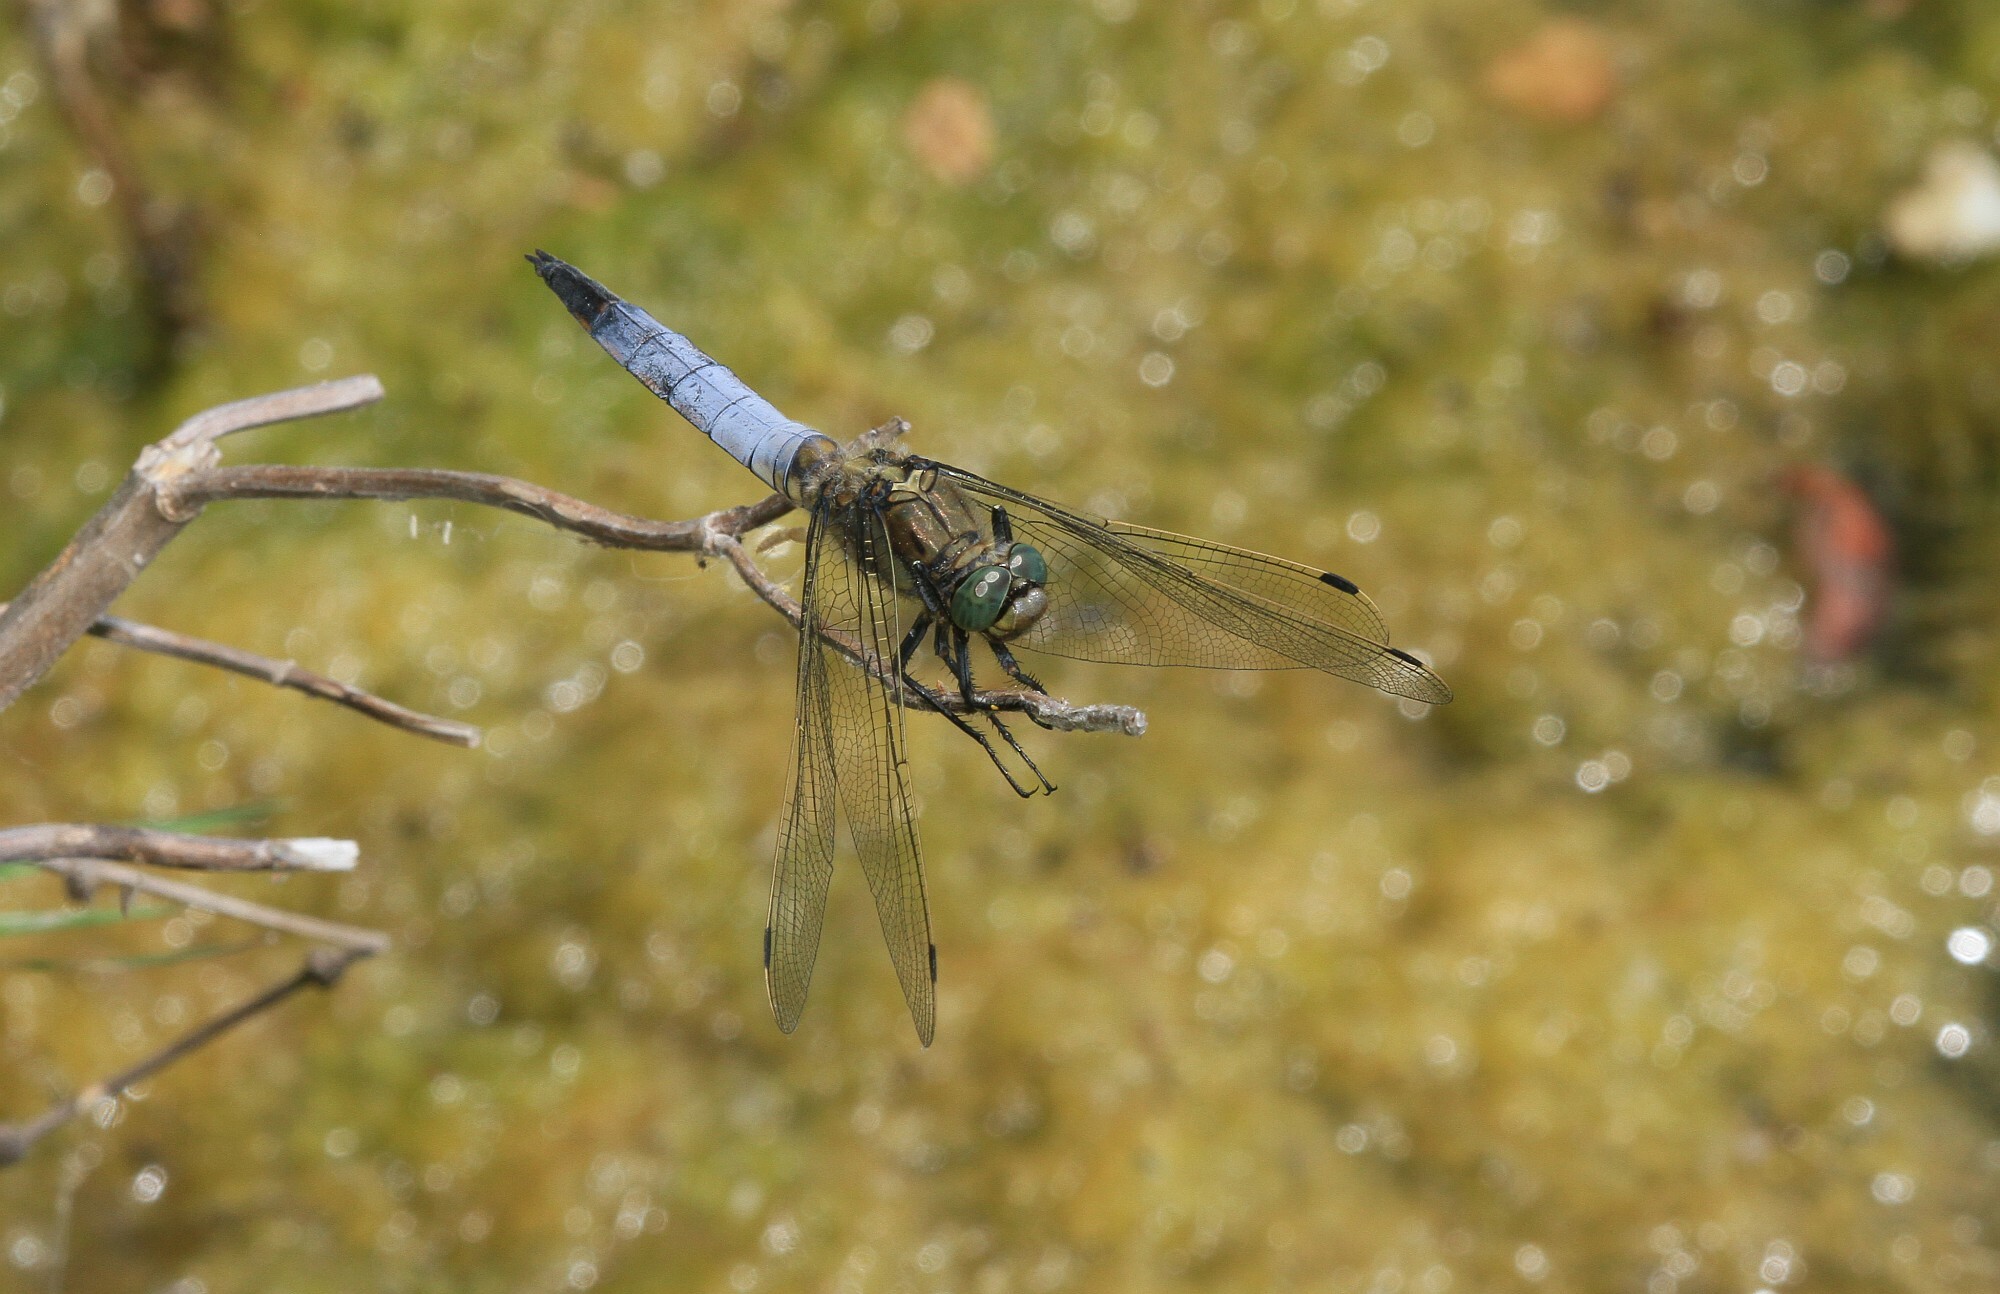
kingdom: Animalia
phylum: Arthropoda
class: Insecta
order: Odonata
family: Libellulidae
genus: Orthetrum
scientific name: Orthetrum cancellatum
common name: Black-tailed skimmer
